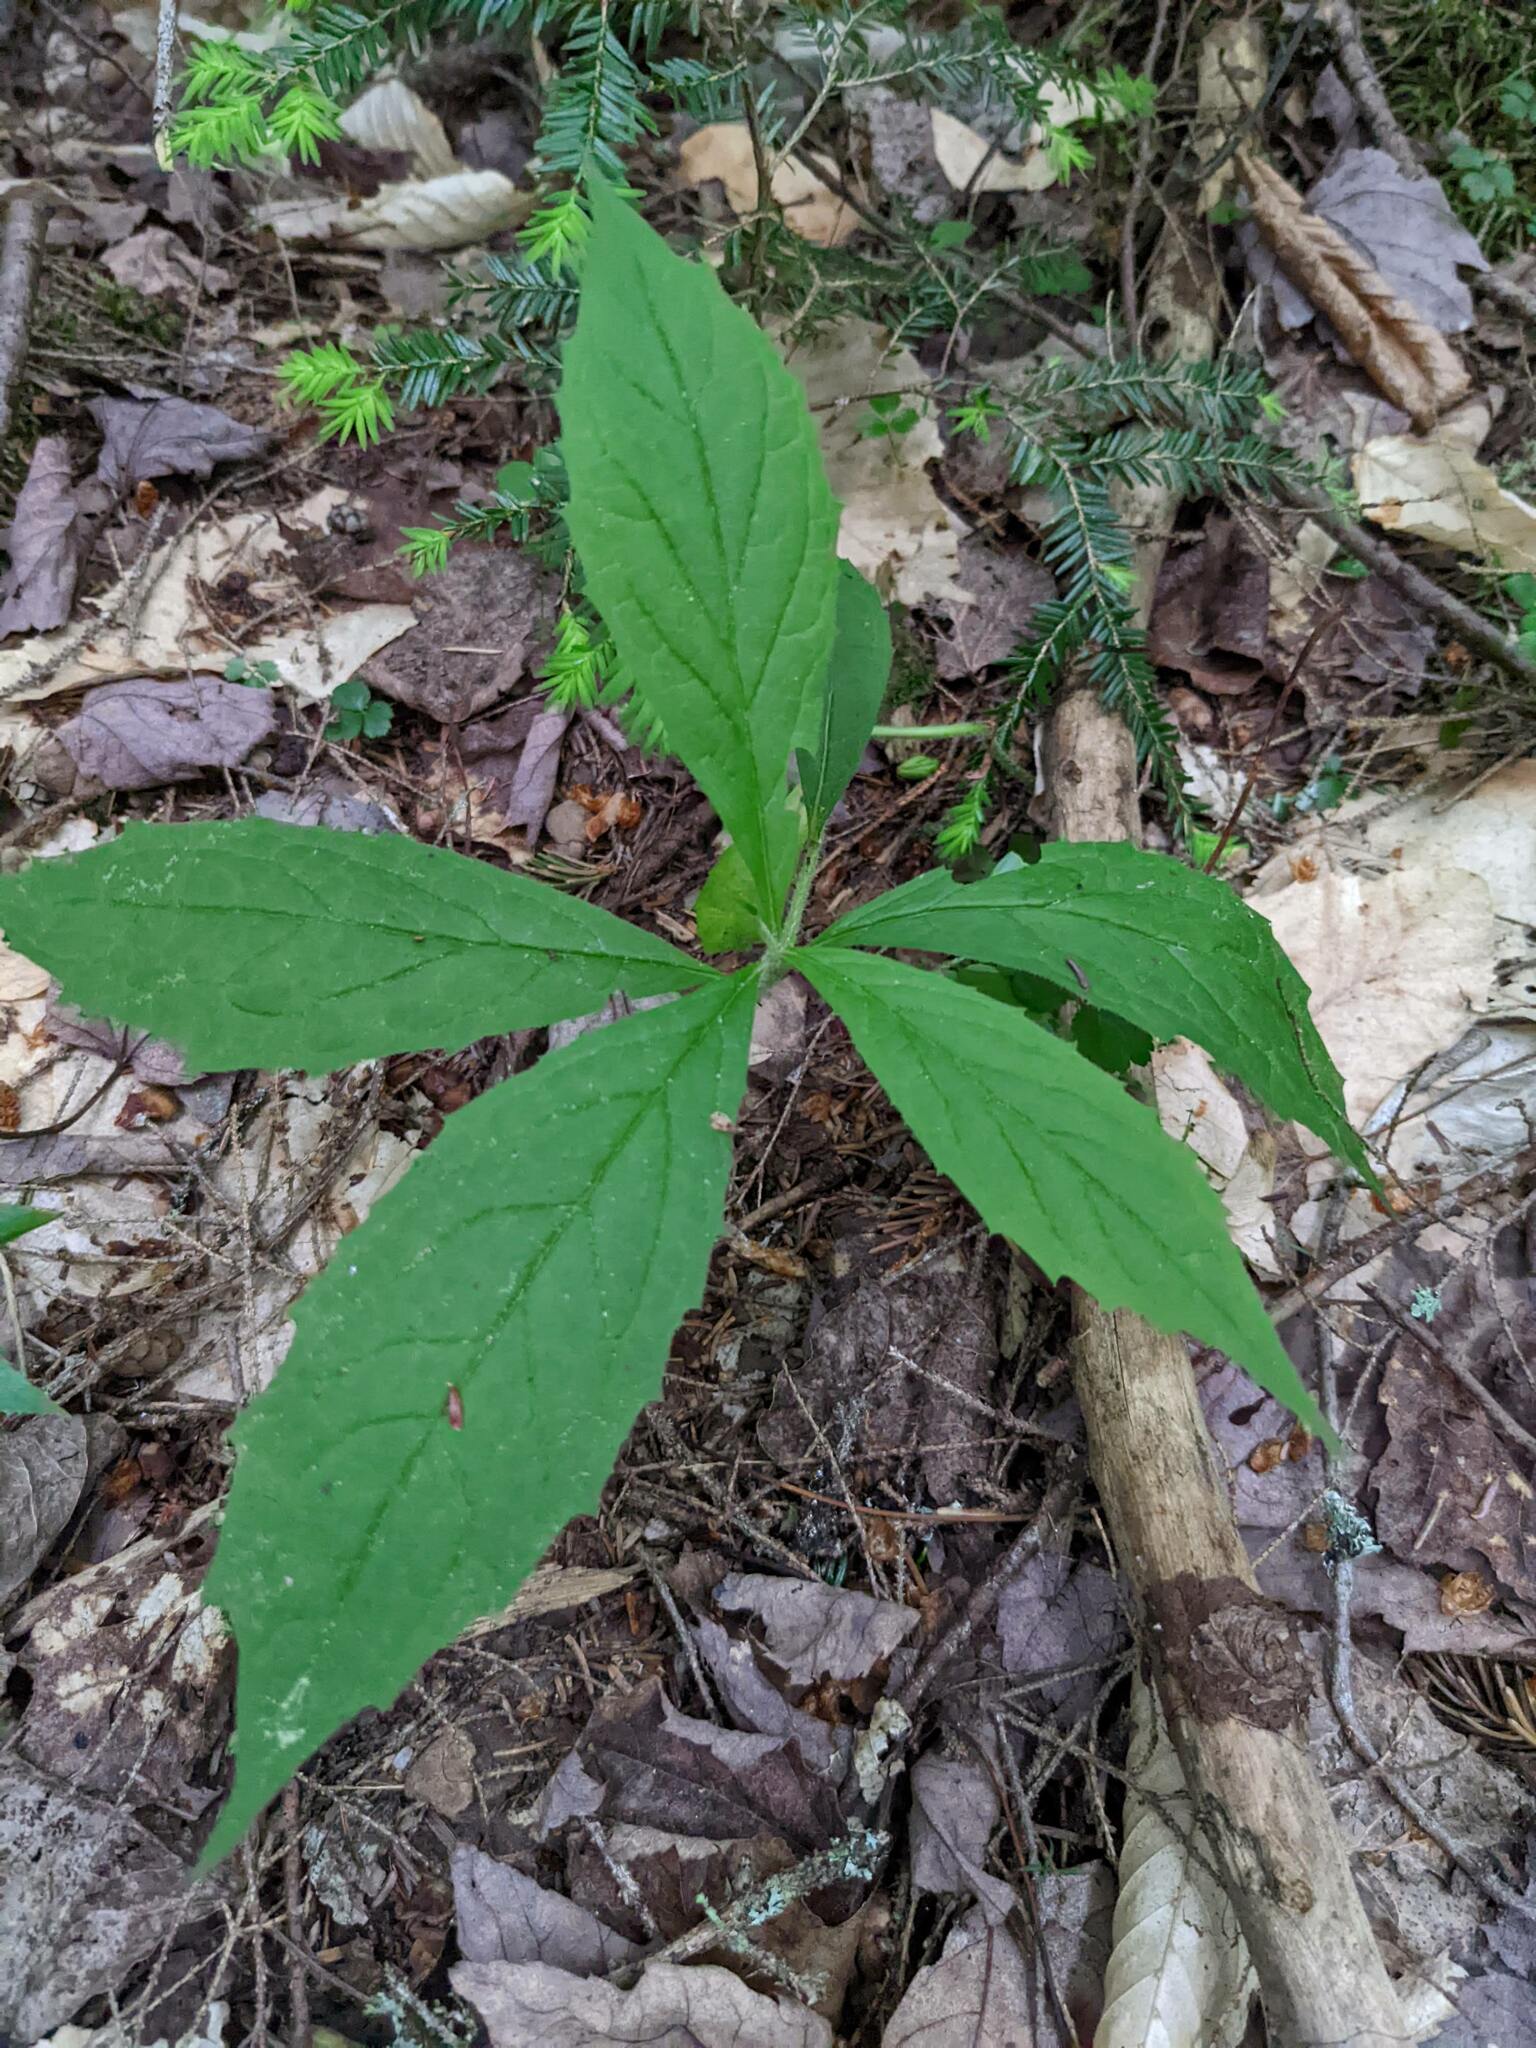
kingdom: Plantae
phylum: Tracheophyta
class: Magnoliopsida
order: Asterales
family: Asteraceae
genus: Oclemena
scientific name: Oclemena acuminata
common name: Mountain aster
